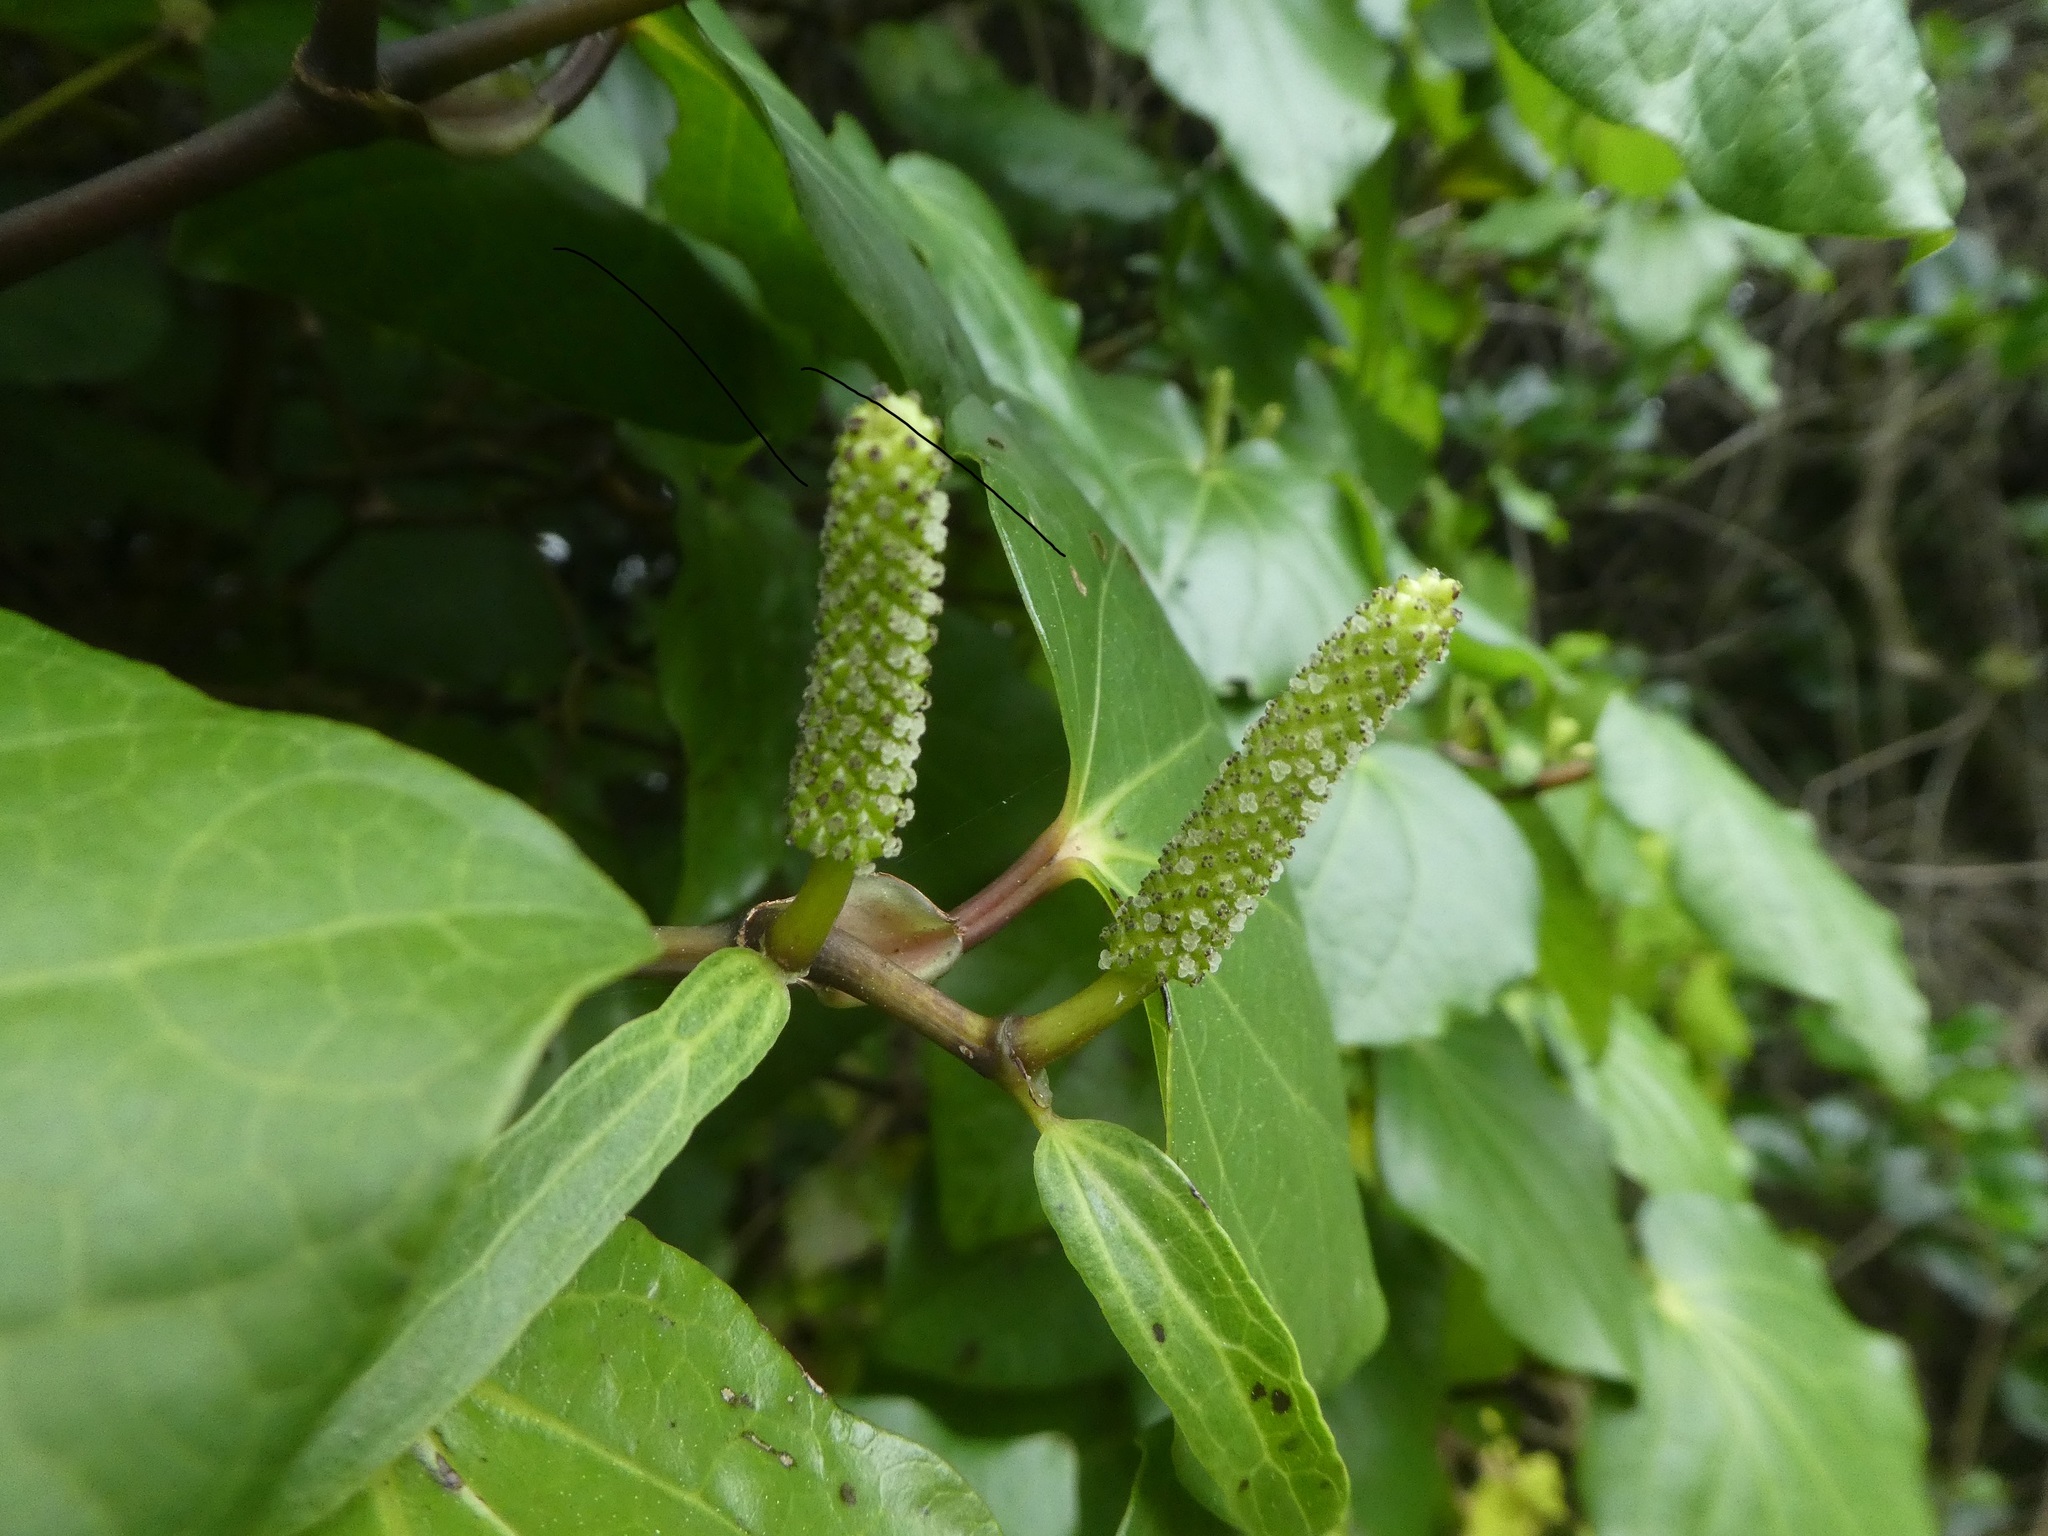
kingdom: Plantae
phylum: Tracheophyta
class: Magnoliopsida
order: Piperales
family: Piperaceae
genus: Macropiper
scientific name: Macropiper excelsum
